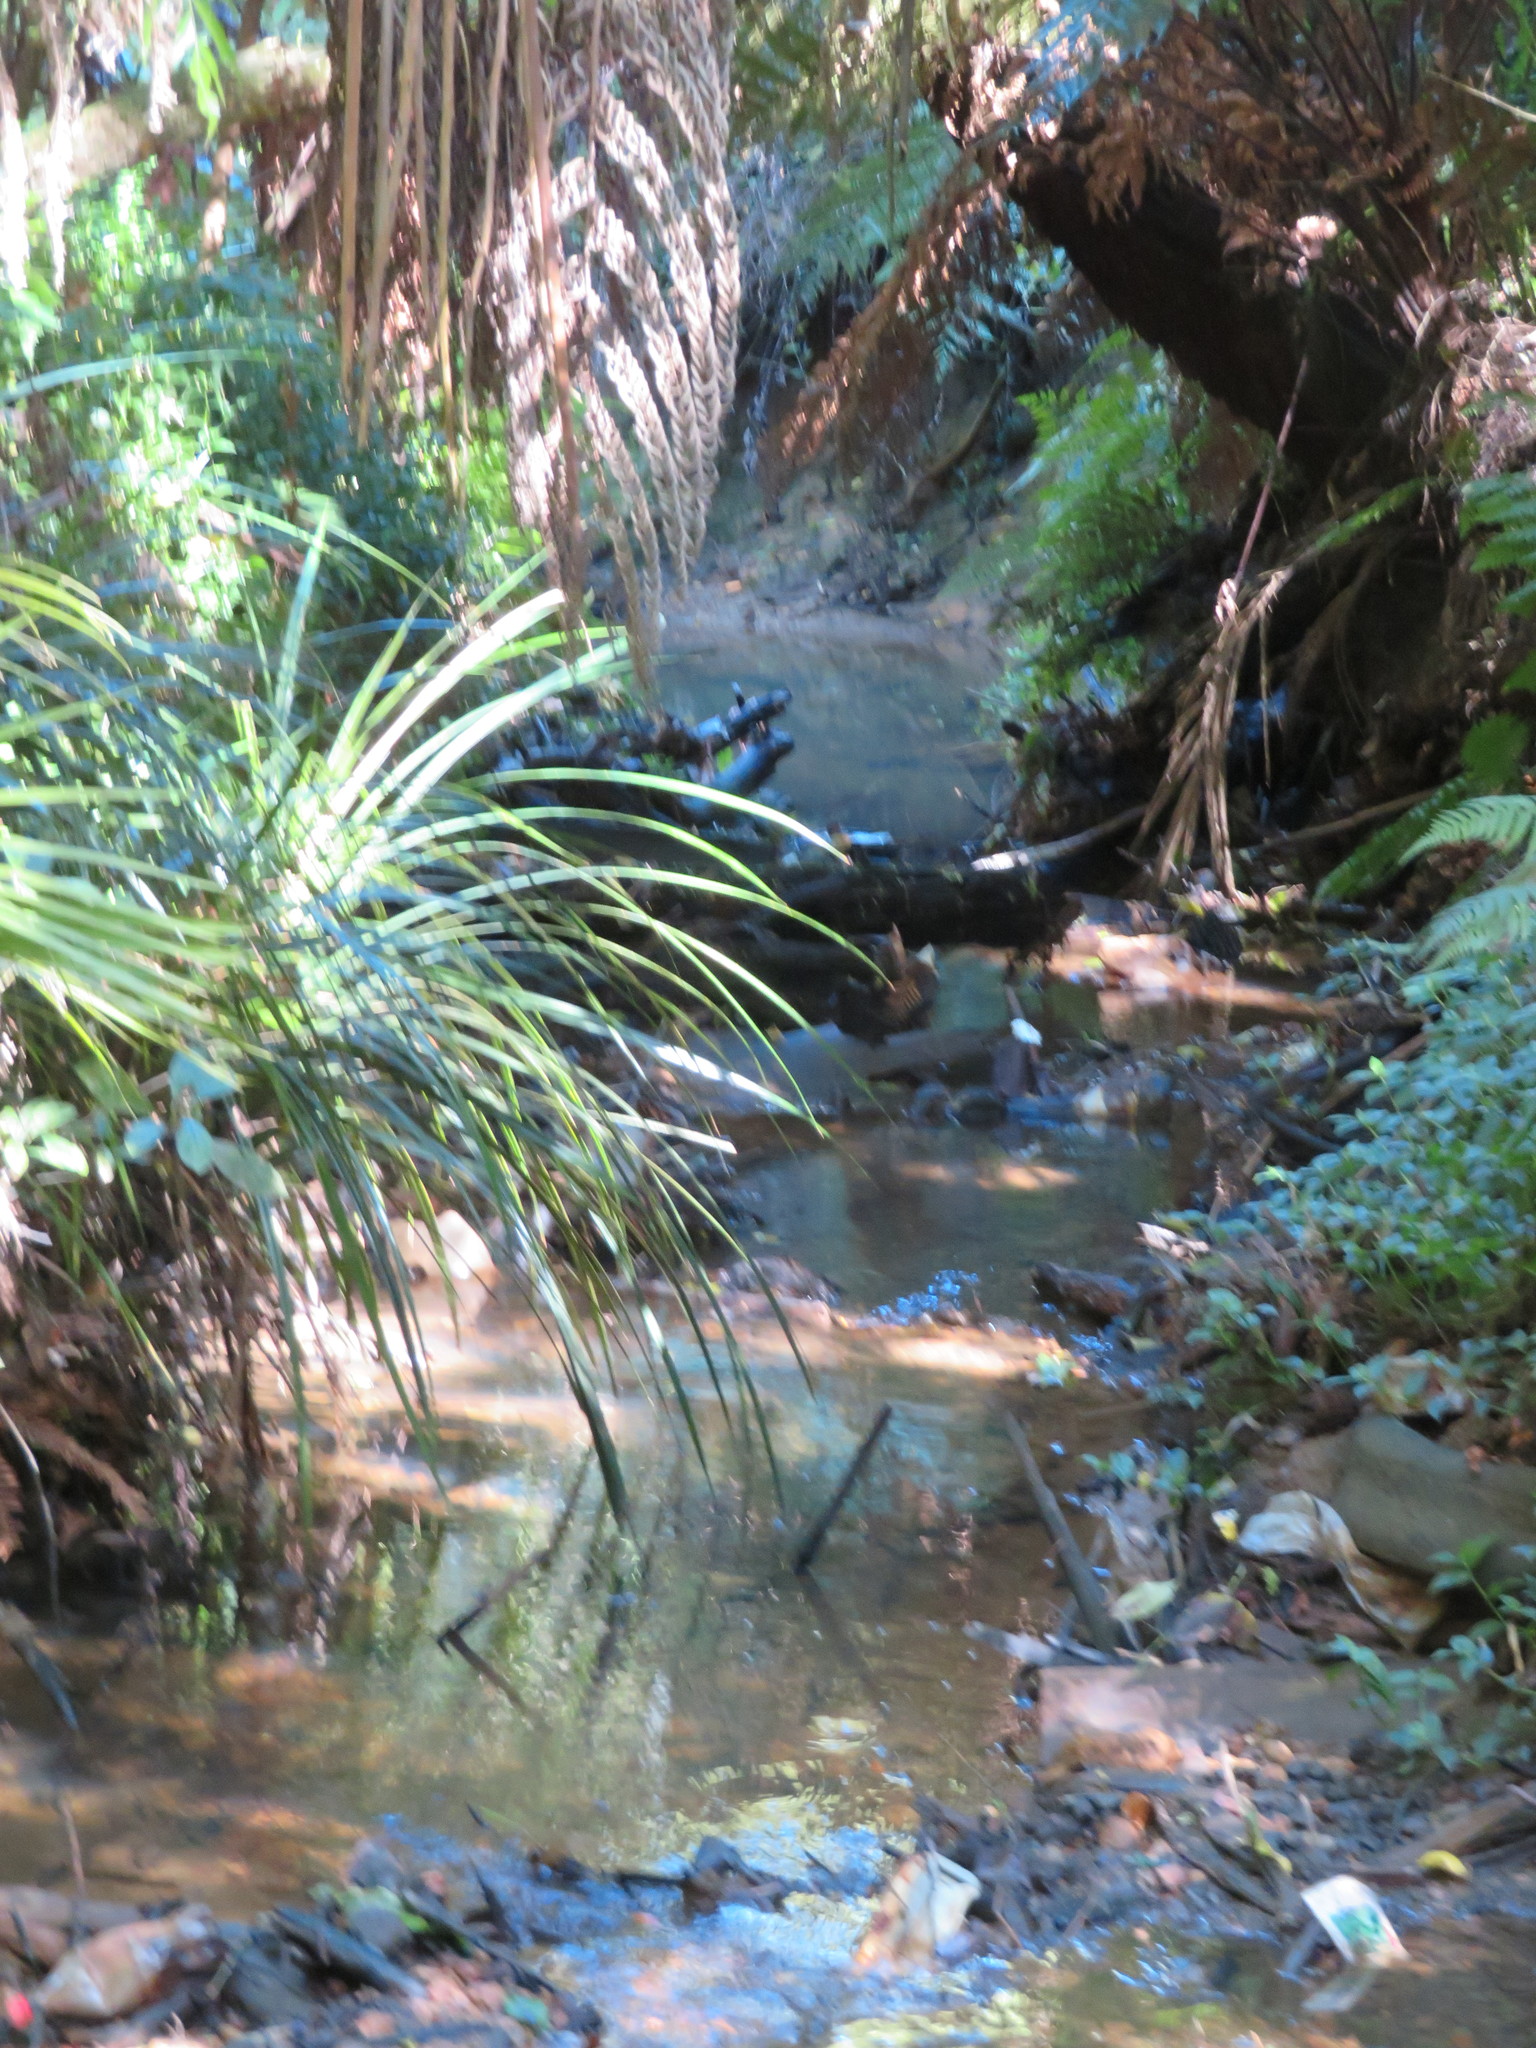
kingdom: Plantae
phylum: Tracheophyta
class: Liliopsida
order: Commelinales
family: Commelinaceae
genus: Tradescantia
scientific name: Tradescantia fluminensis
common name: Wandering-jew
